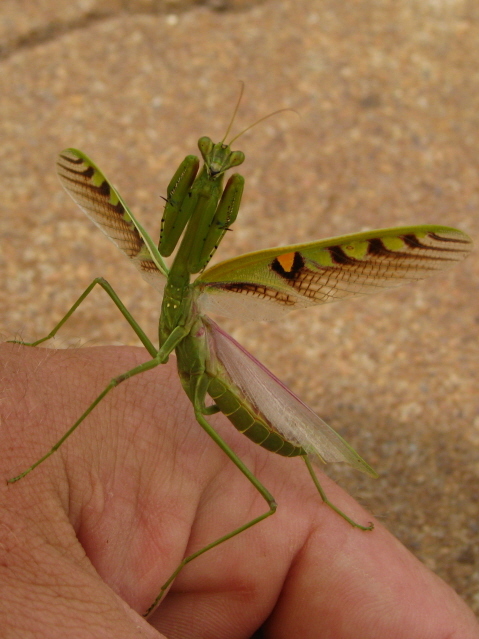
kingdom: Animalia
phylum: Arthropoda
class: Insecta
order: Mantodea
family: Mantidae
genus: Omomantis
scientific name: Omomantis zebrata
